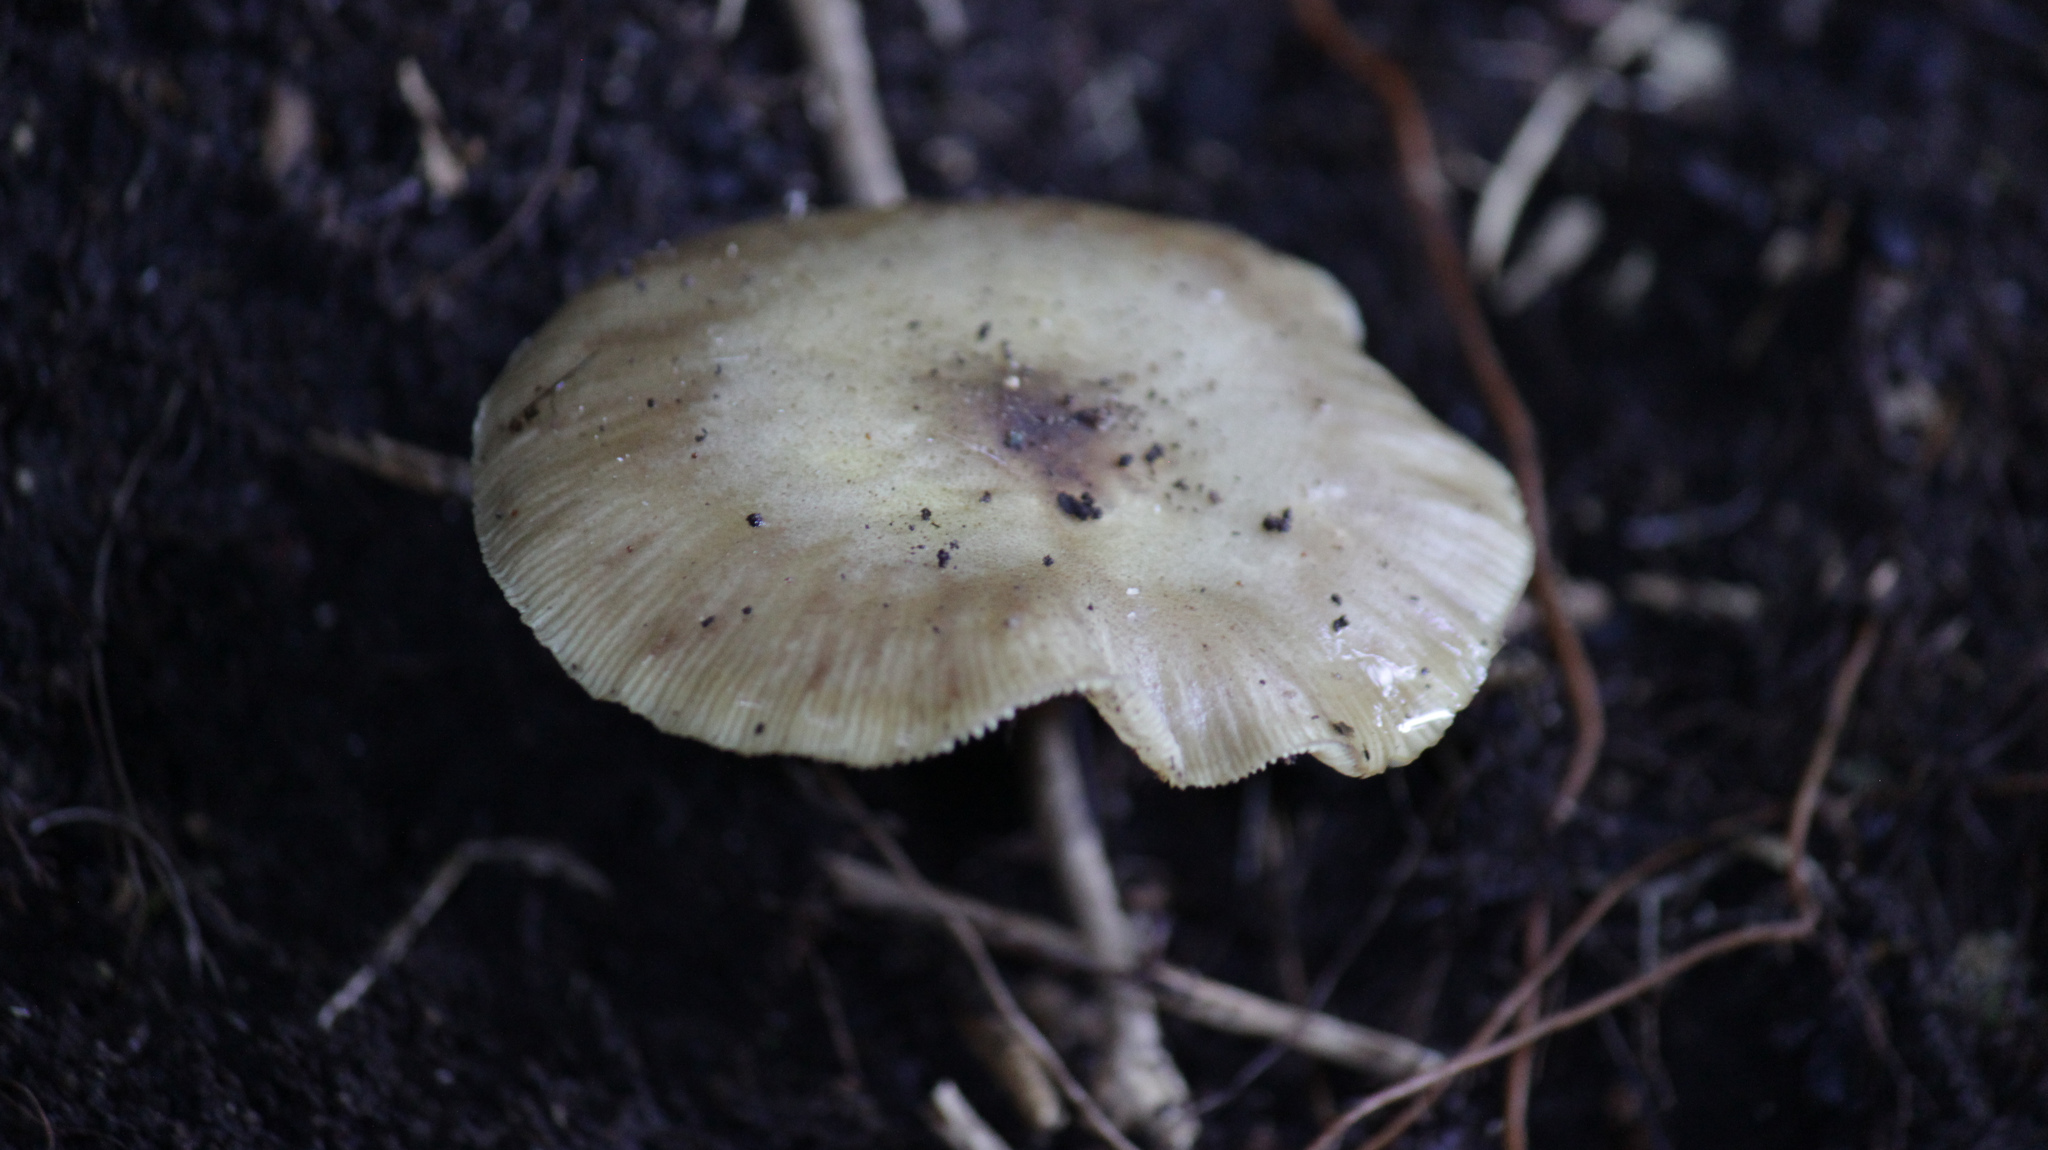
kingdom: Fungi
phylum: Basidiomycota
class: Agaricomycetes
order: Agaricales
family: Physalacriaceae
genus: Armillaria
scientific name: Armillaria novae-zelandiae
